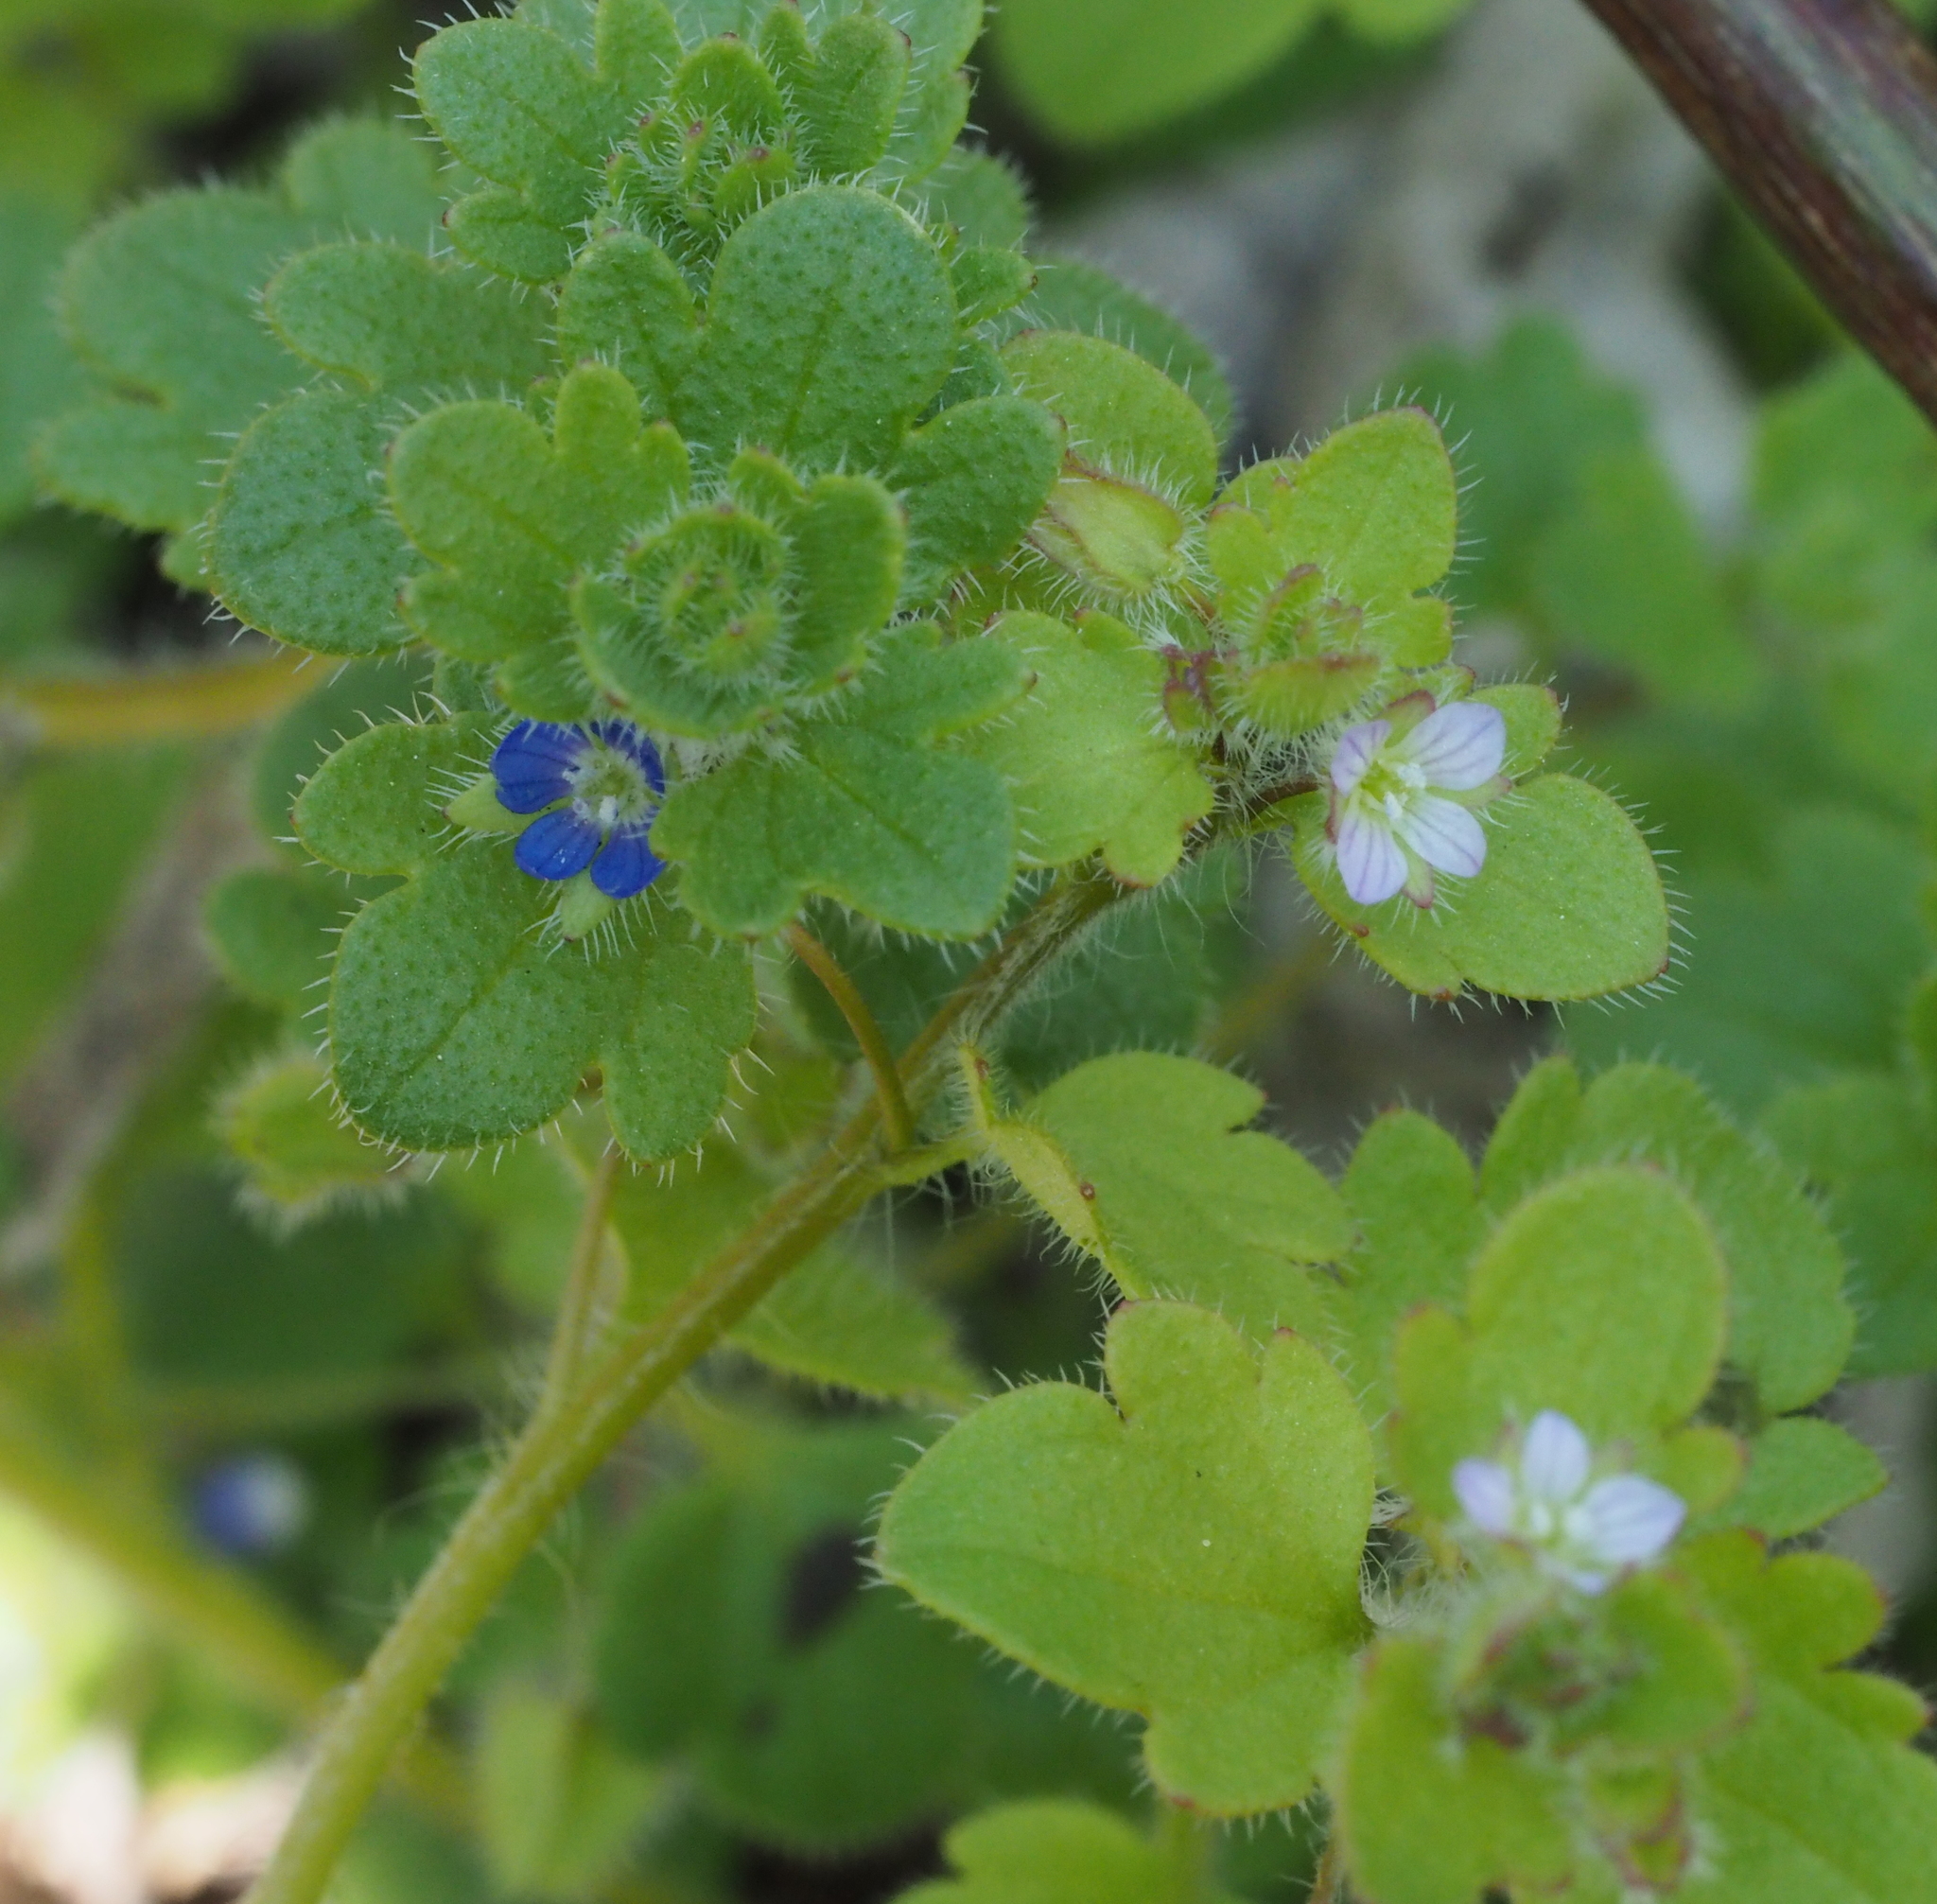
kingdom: Plantae
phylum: Tracheophyta
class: Magnoliopsida
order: Lamiales
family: Plantaginaceae
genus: Veronica
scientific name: Veronica hederifolia
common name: Ivy-leaved speedwell
